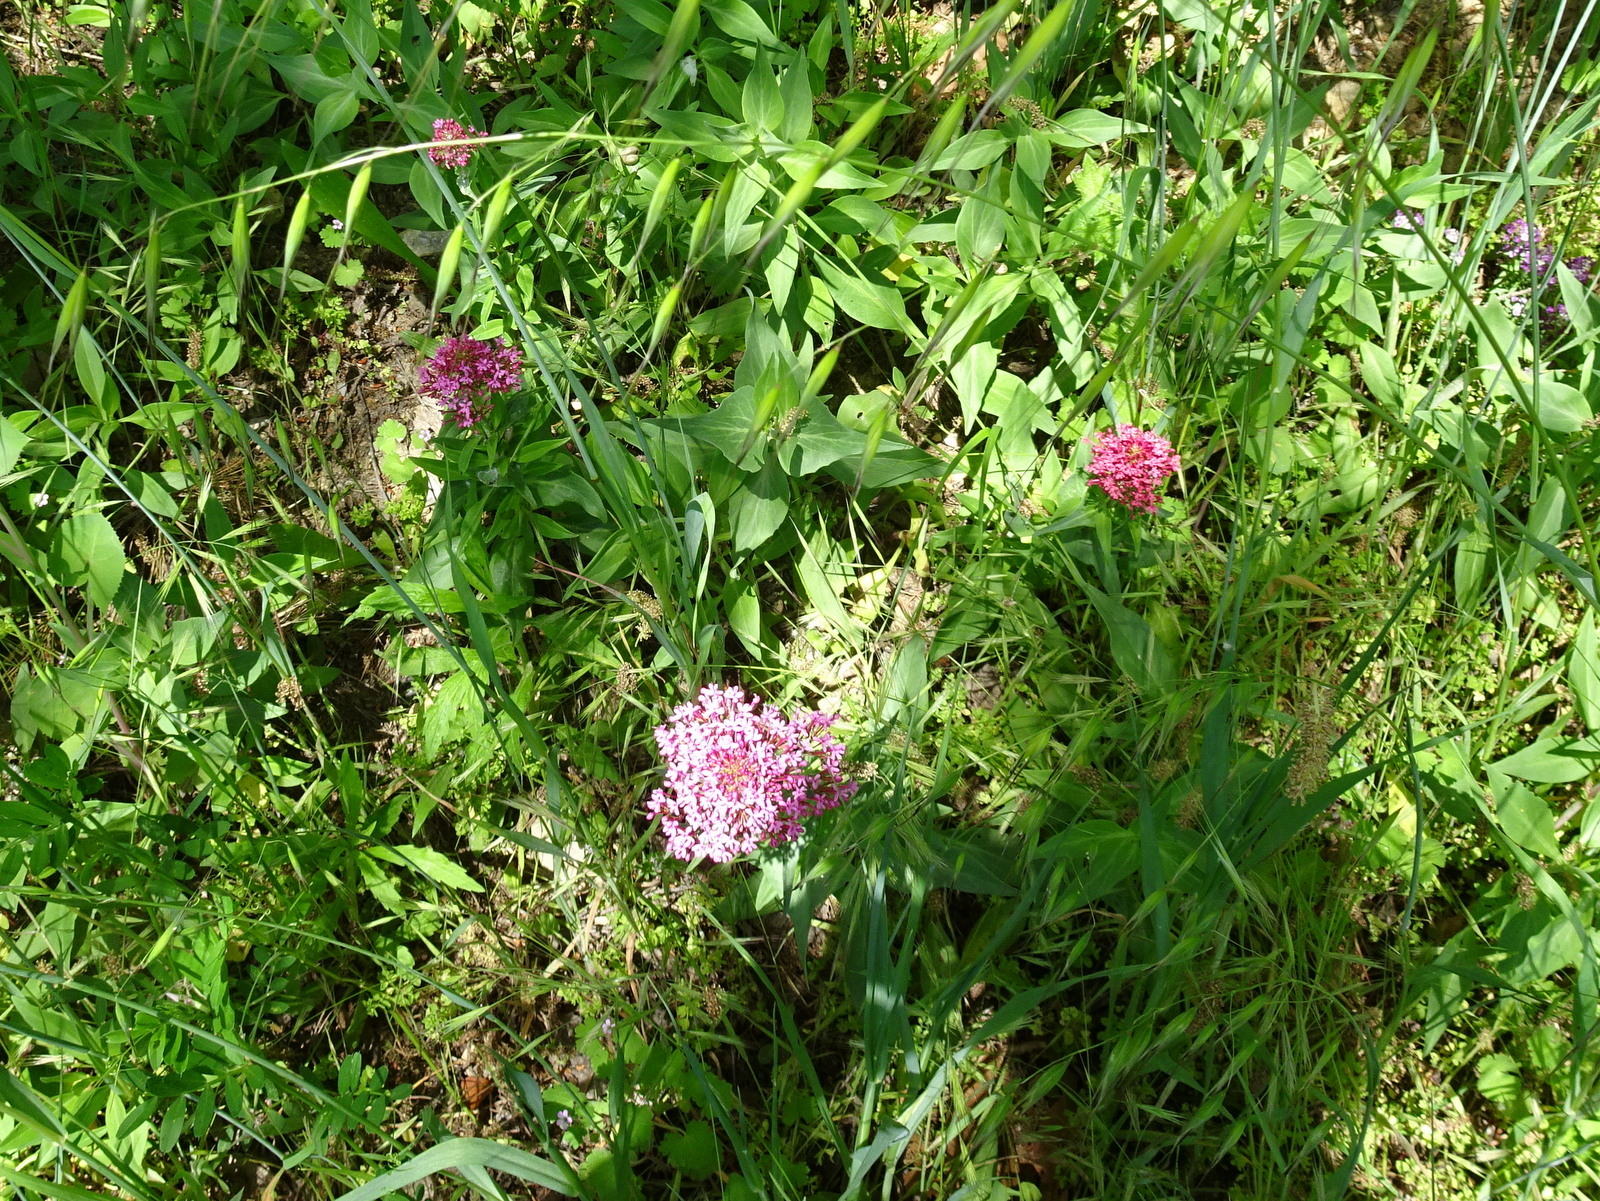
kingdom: Plantae
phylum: Tracheophyta
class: Magnoliopsida
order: Dipsacales
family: Caprifoliaceae
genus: Centranthus
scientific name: Centranthus ruber
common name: Red valerian
